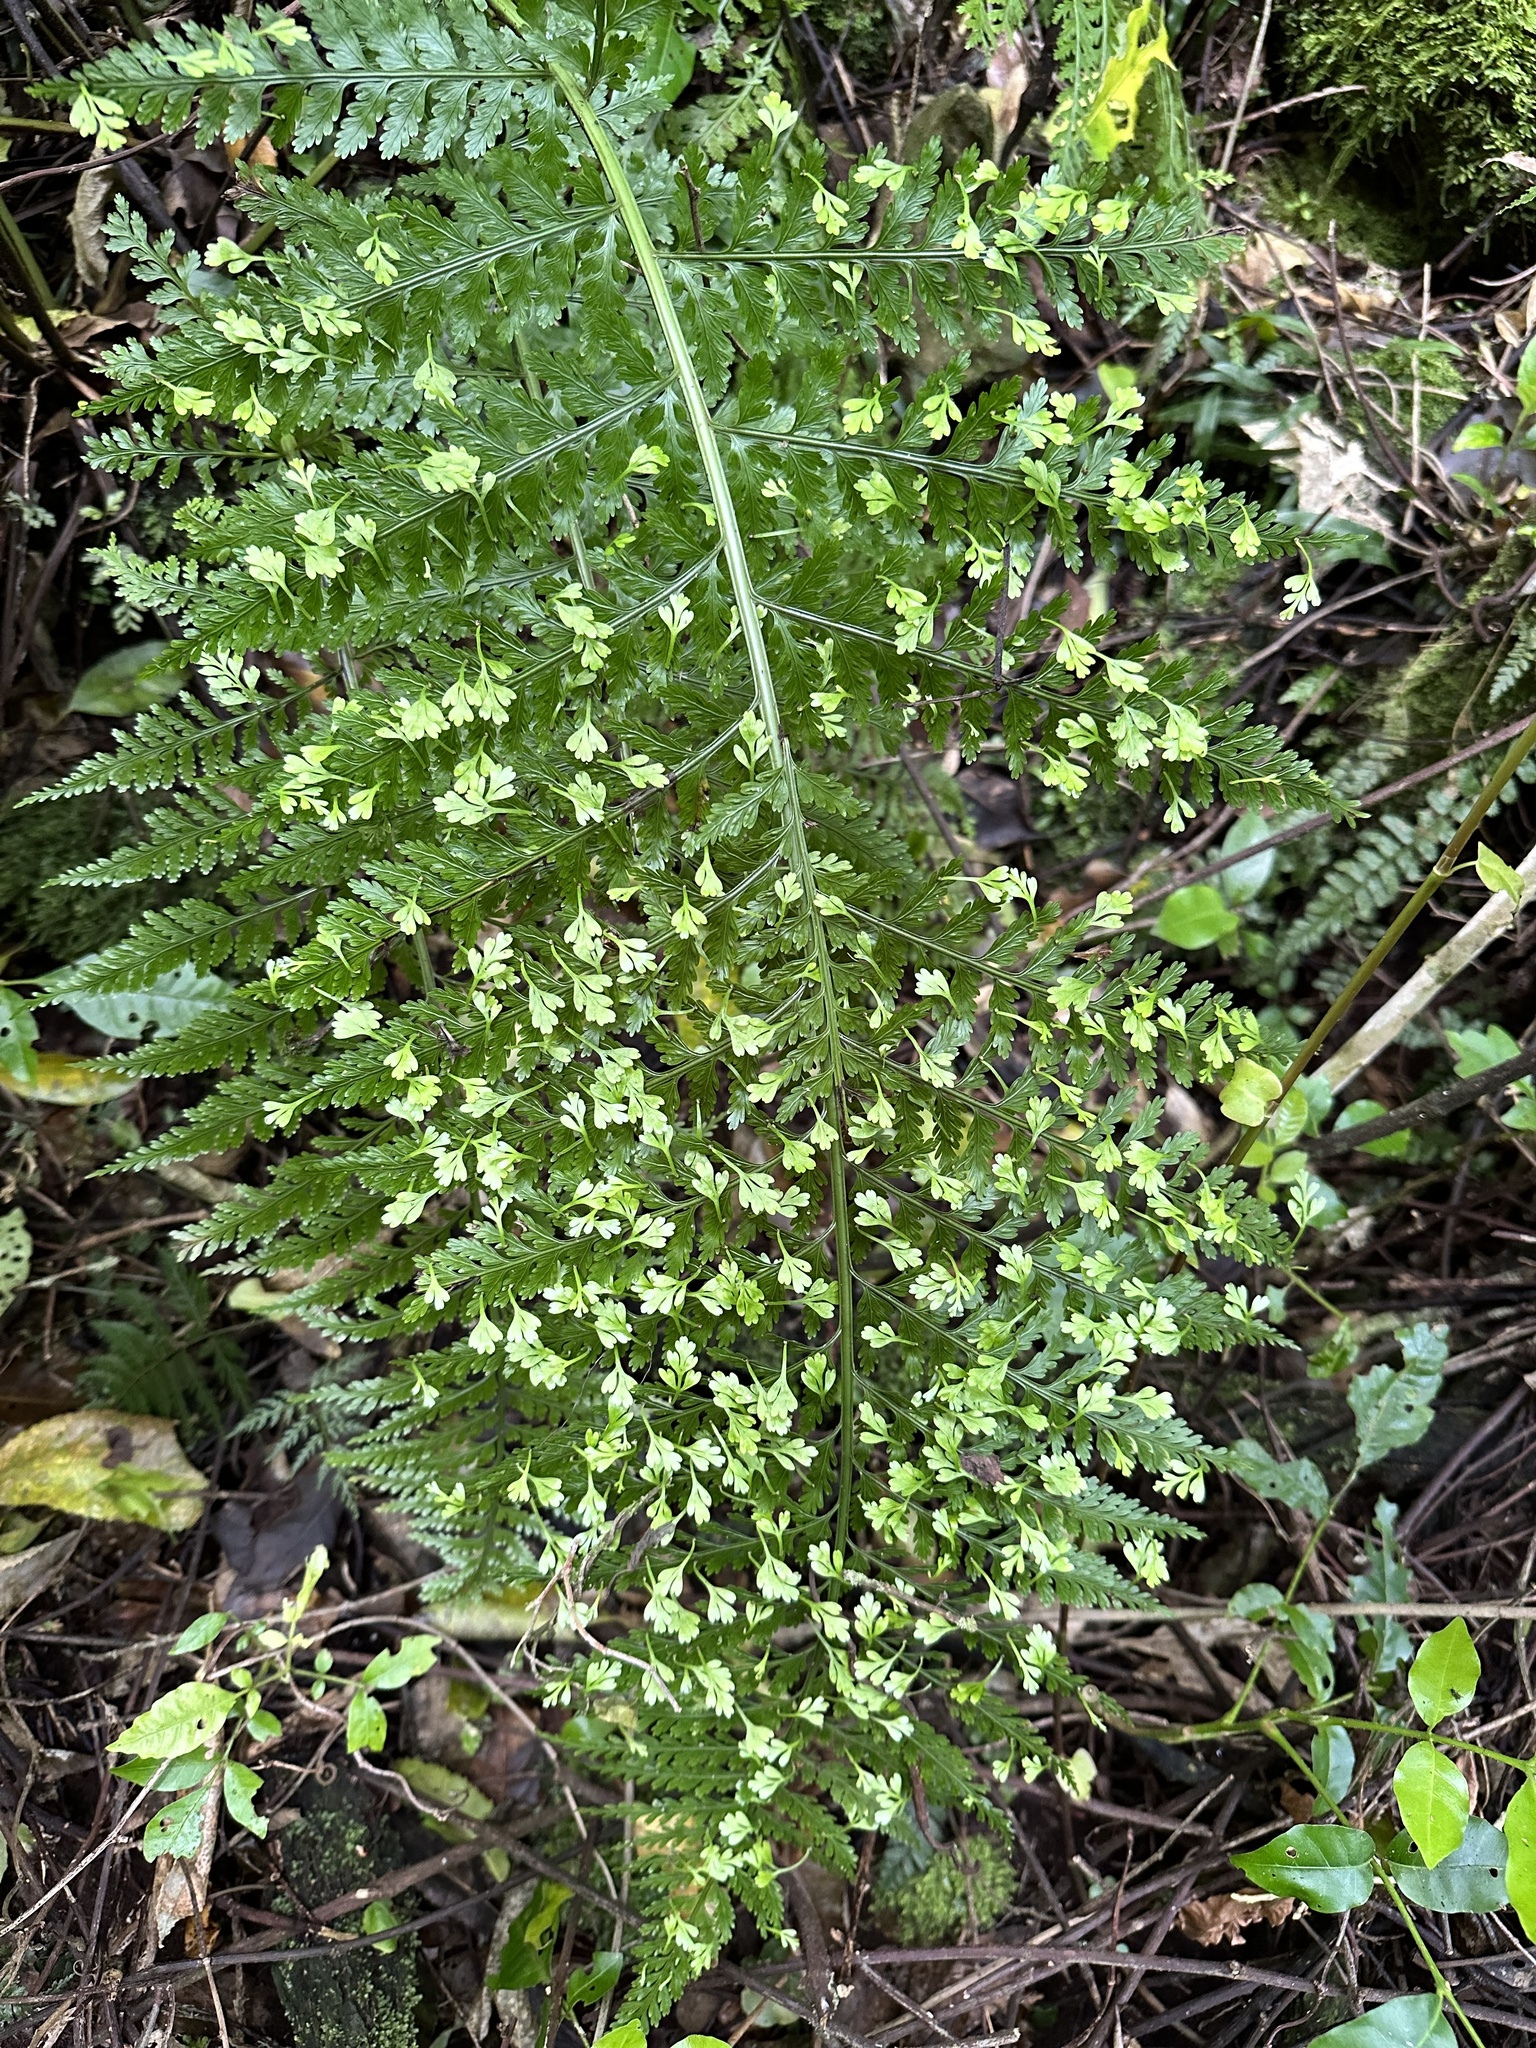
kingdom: Plantae
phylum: Tracheophyta
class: Polypodiopsida
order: Polypodiales
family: Aspleniaceae
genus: Asplenium
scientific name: Asplenium bulbiferum
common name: Mother fern
